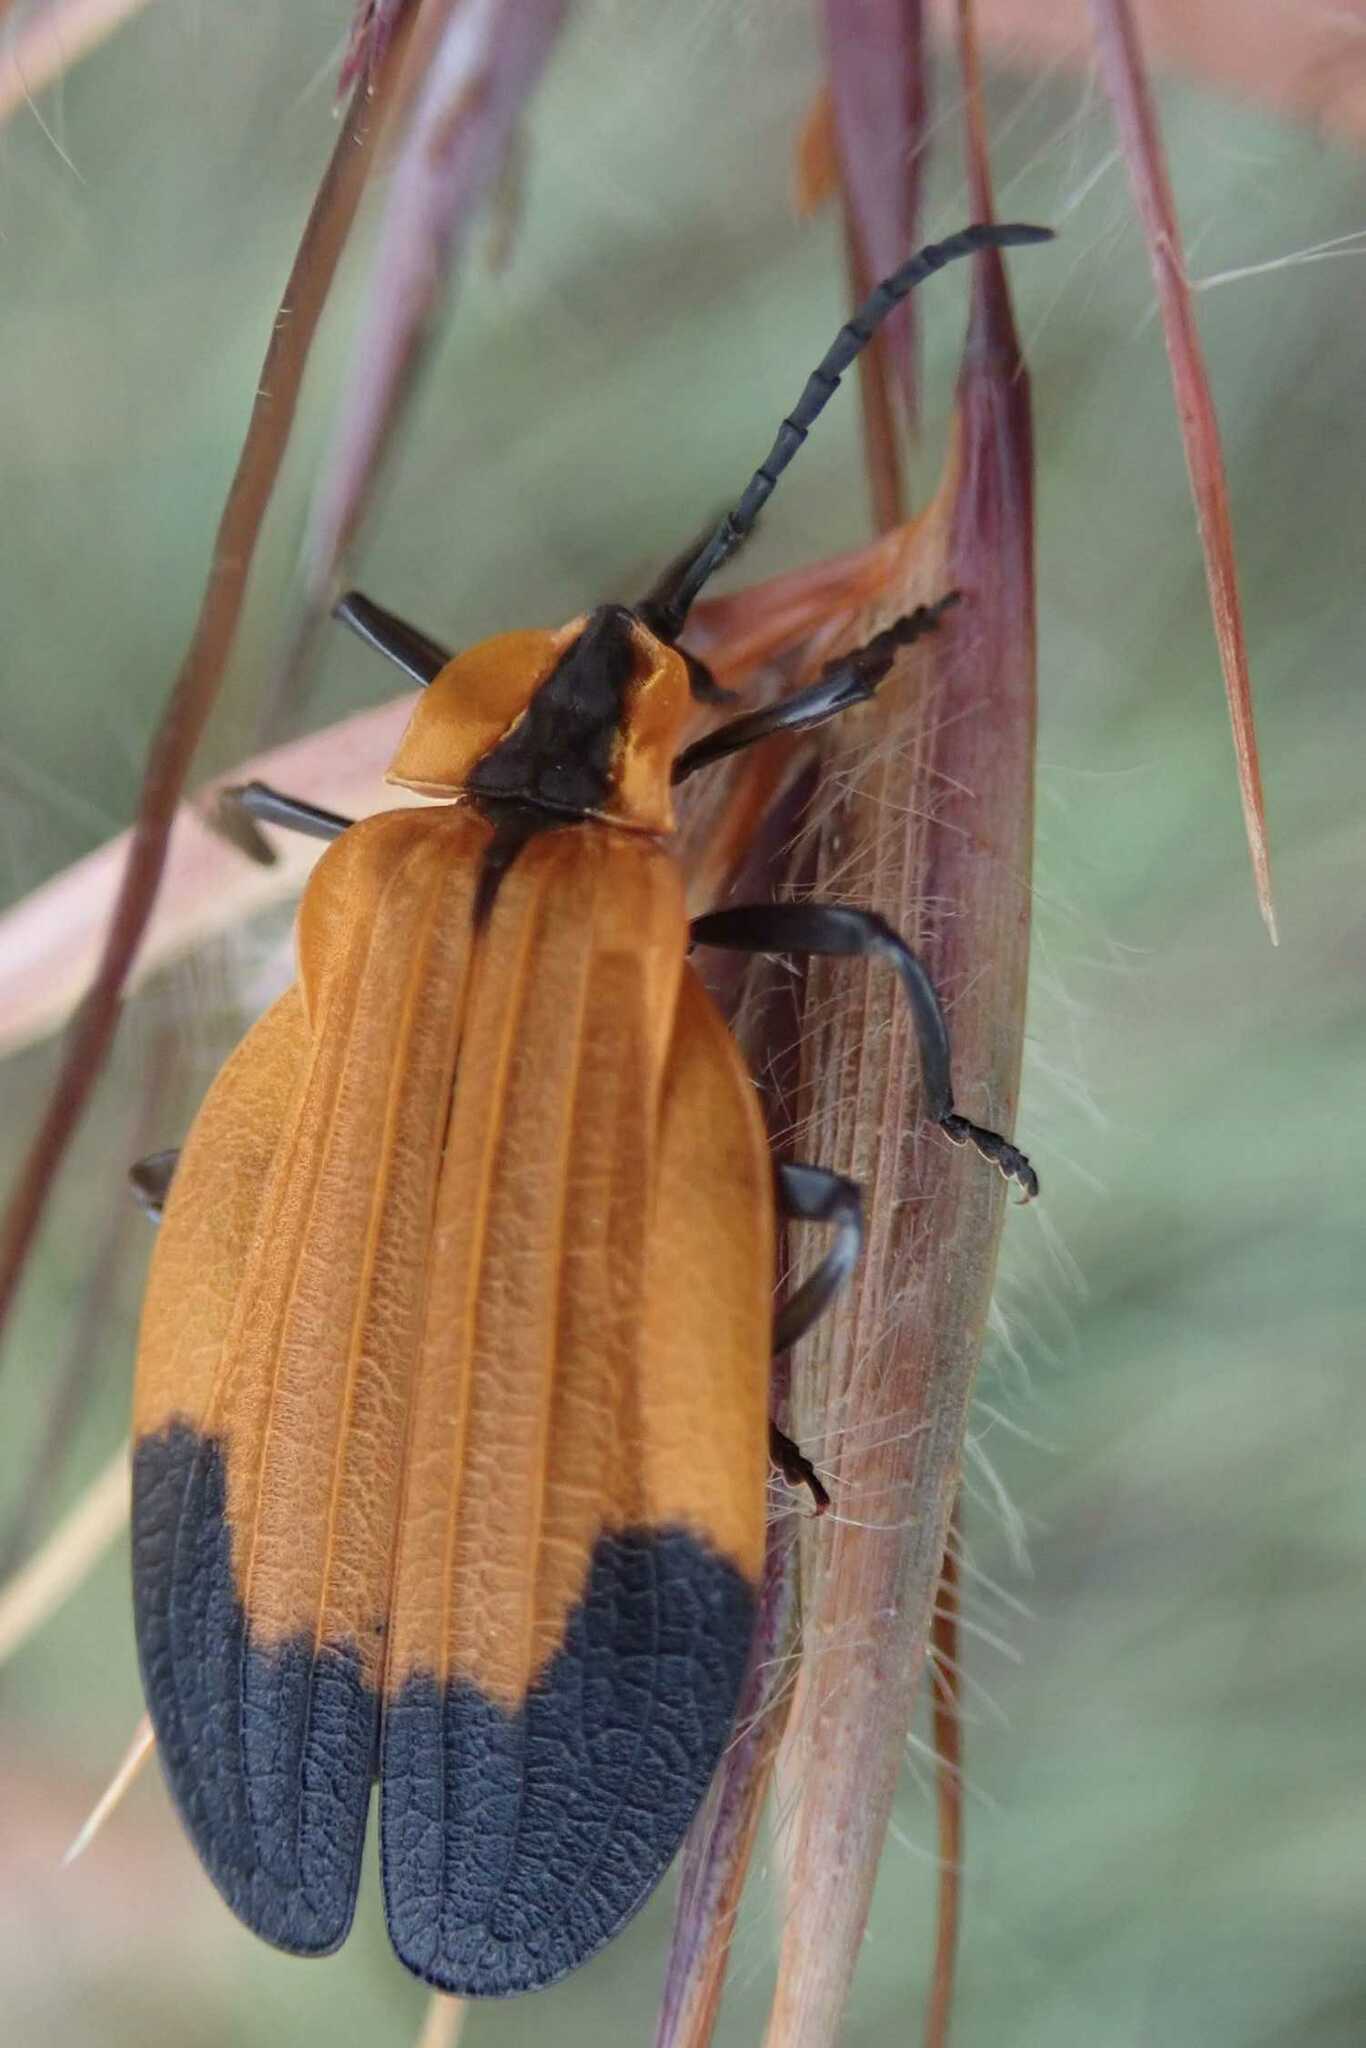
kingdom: Animalia
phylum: Arthropoda
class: Insecta
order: Coleoptera
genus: Haplolycus
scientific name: Haplolycus
